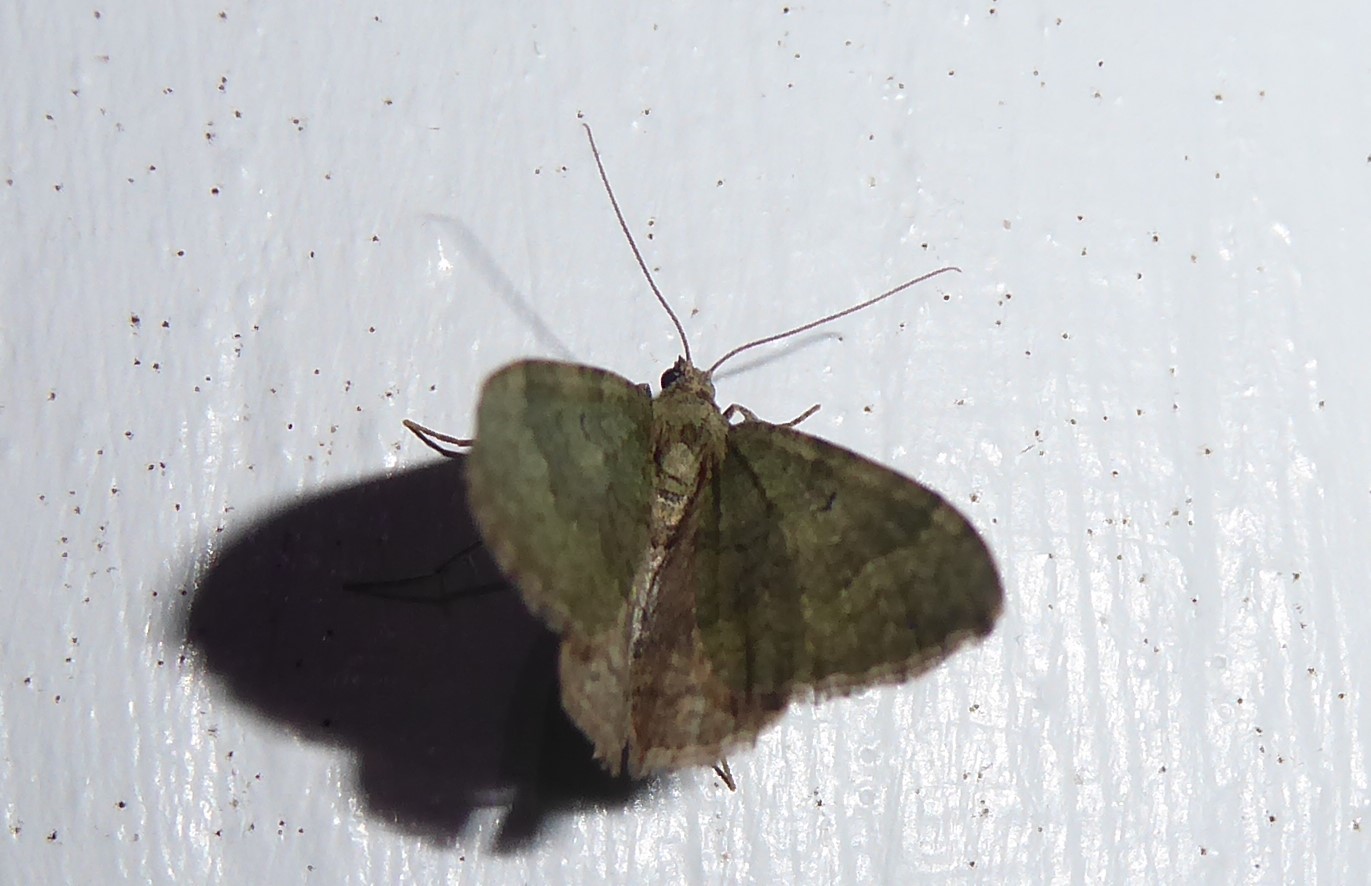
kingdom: Animalia
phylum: Arthropoda
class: Insecta
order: Lepidoptera
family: Geometridae
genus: Epyaxa
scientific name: Epyaxa rosearia
